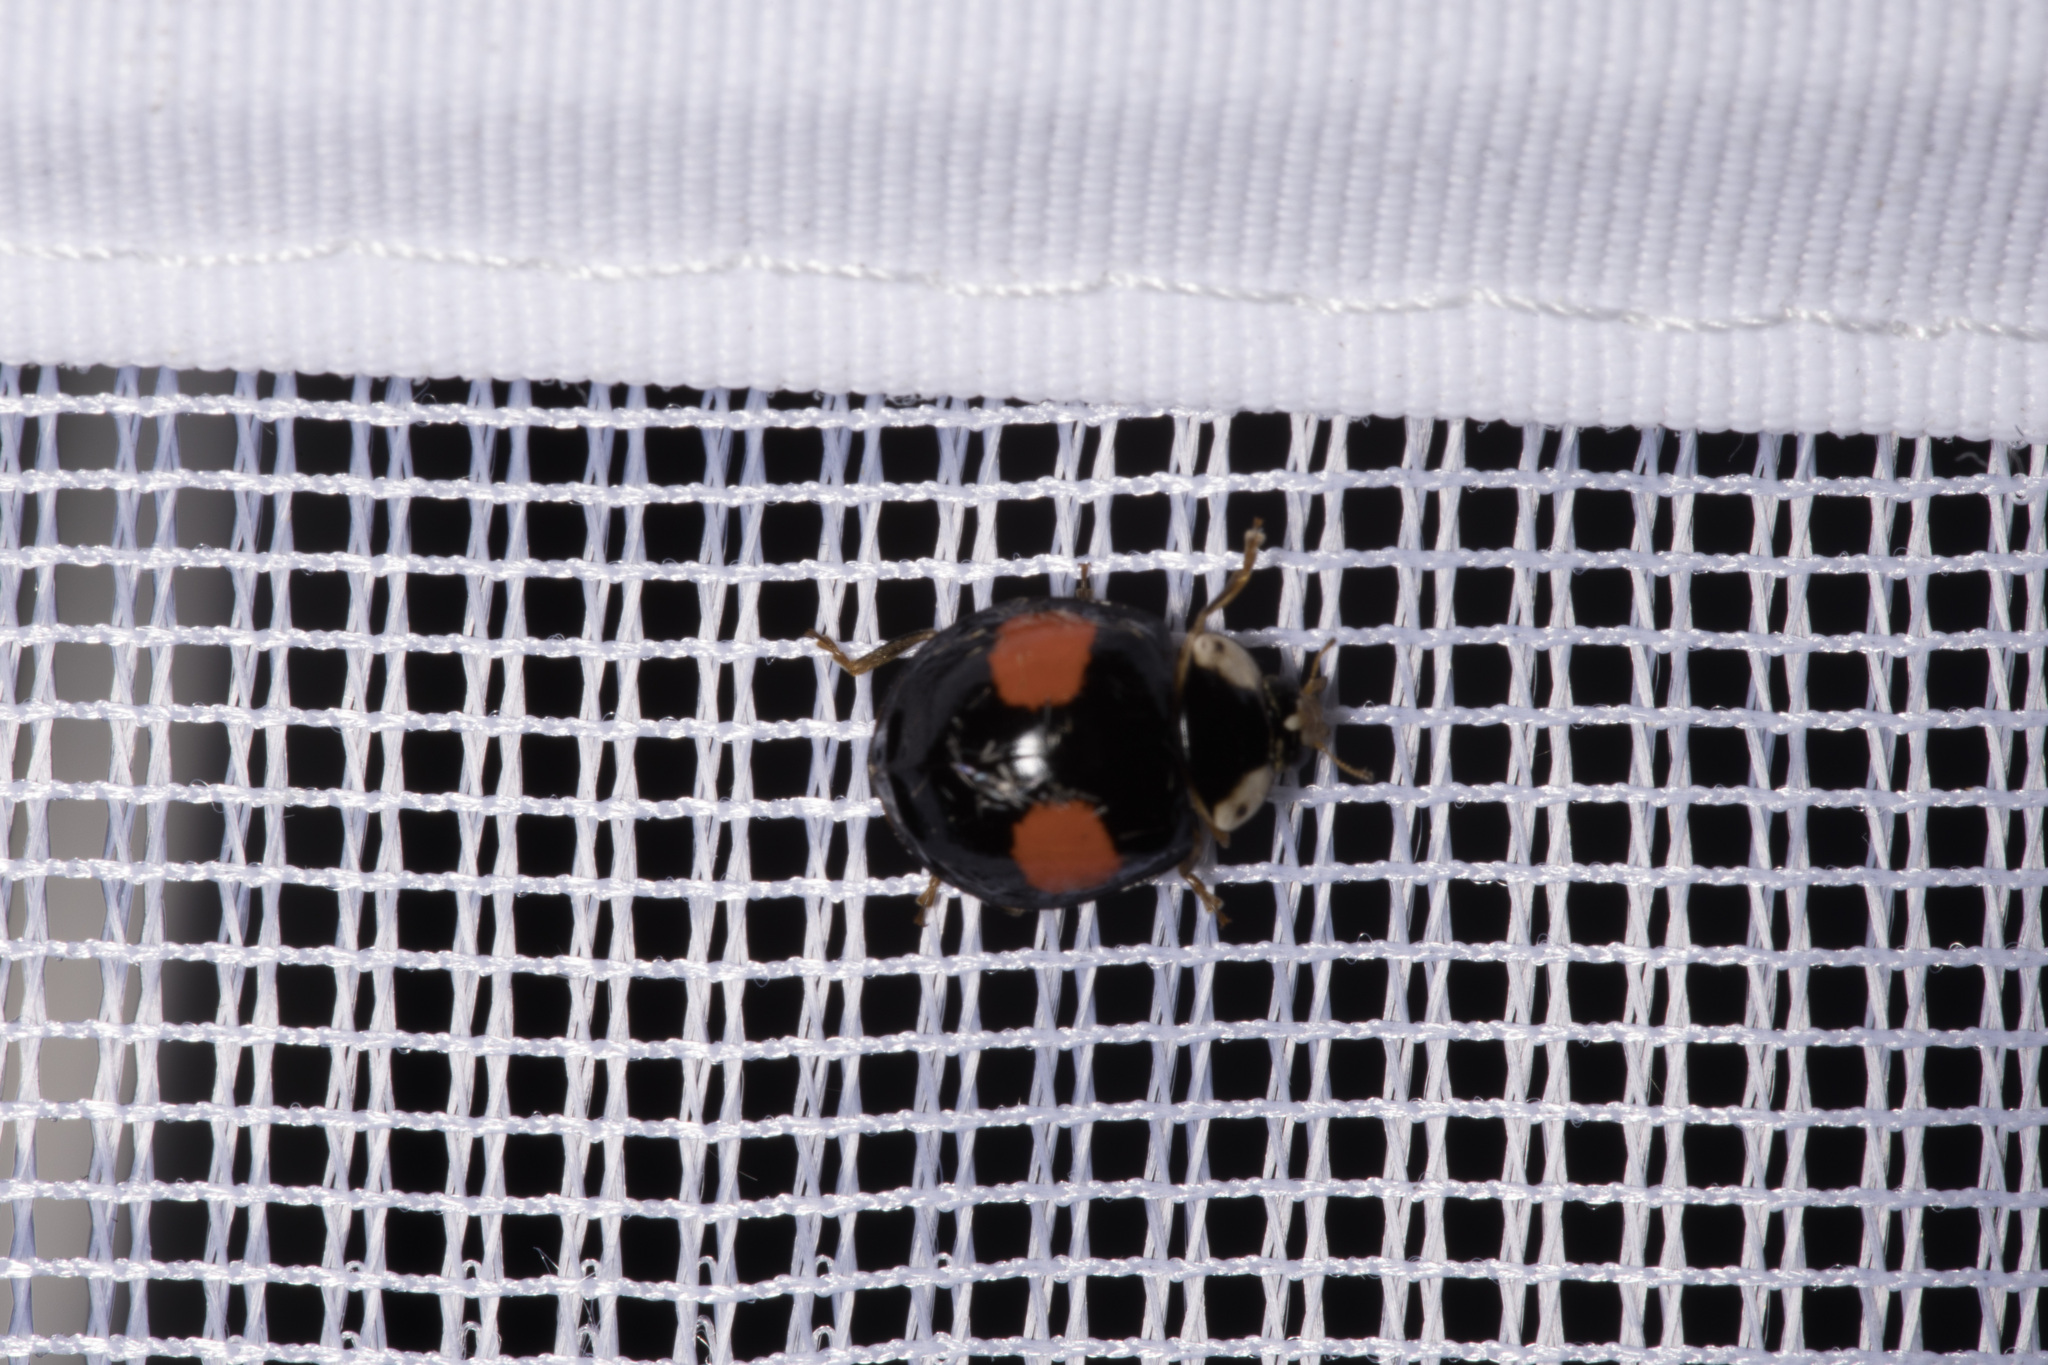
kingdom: Animalia
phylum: Arthropoda
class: Insecta
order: Coleoptera
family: Coccinellidae
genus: Harmonia
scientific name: Harmonia axyridis
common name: Harlequin ladybird
